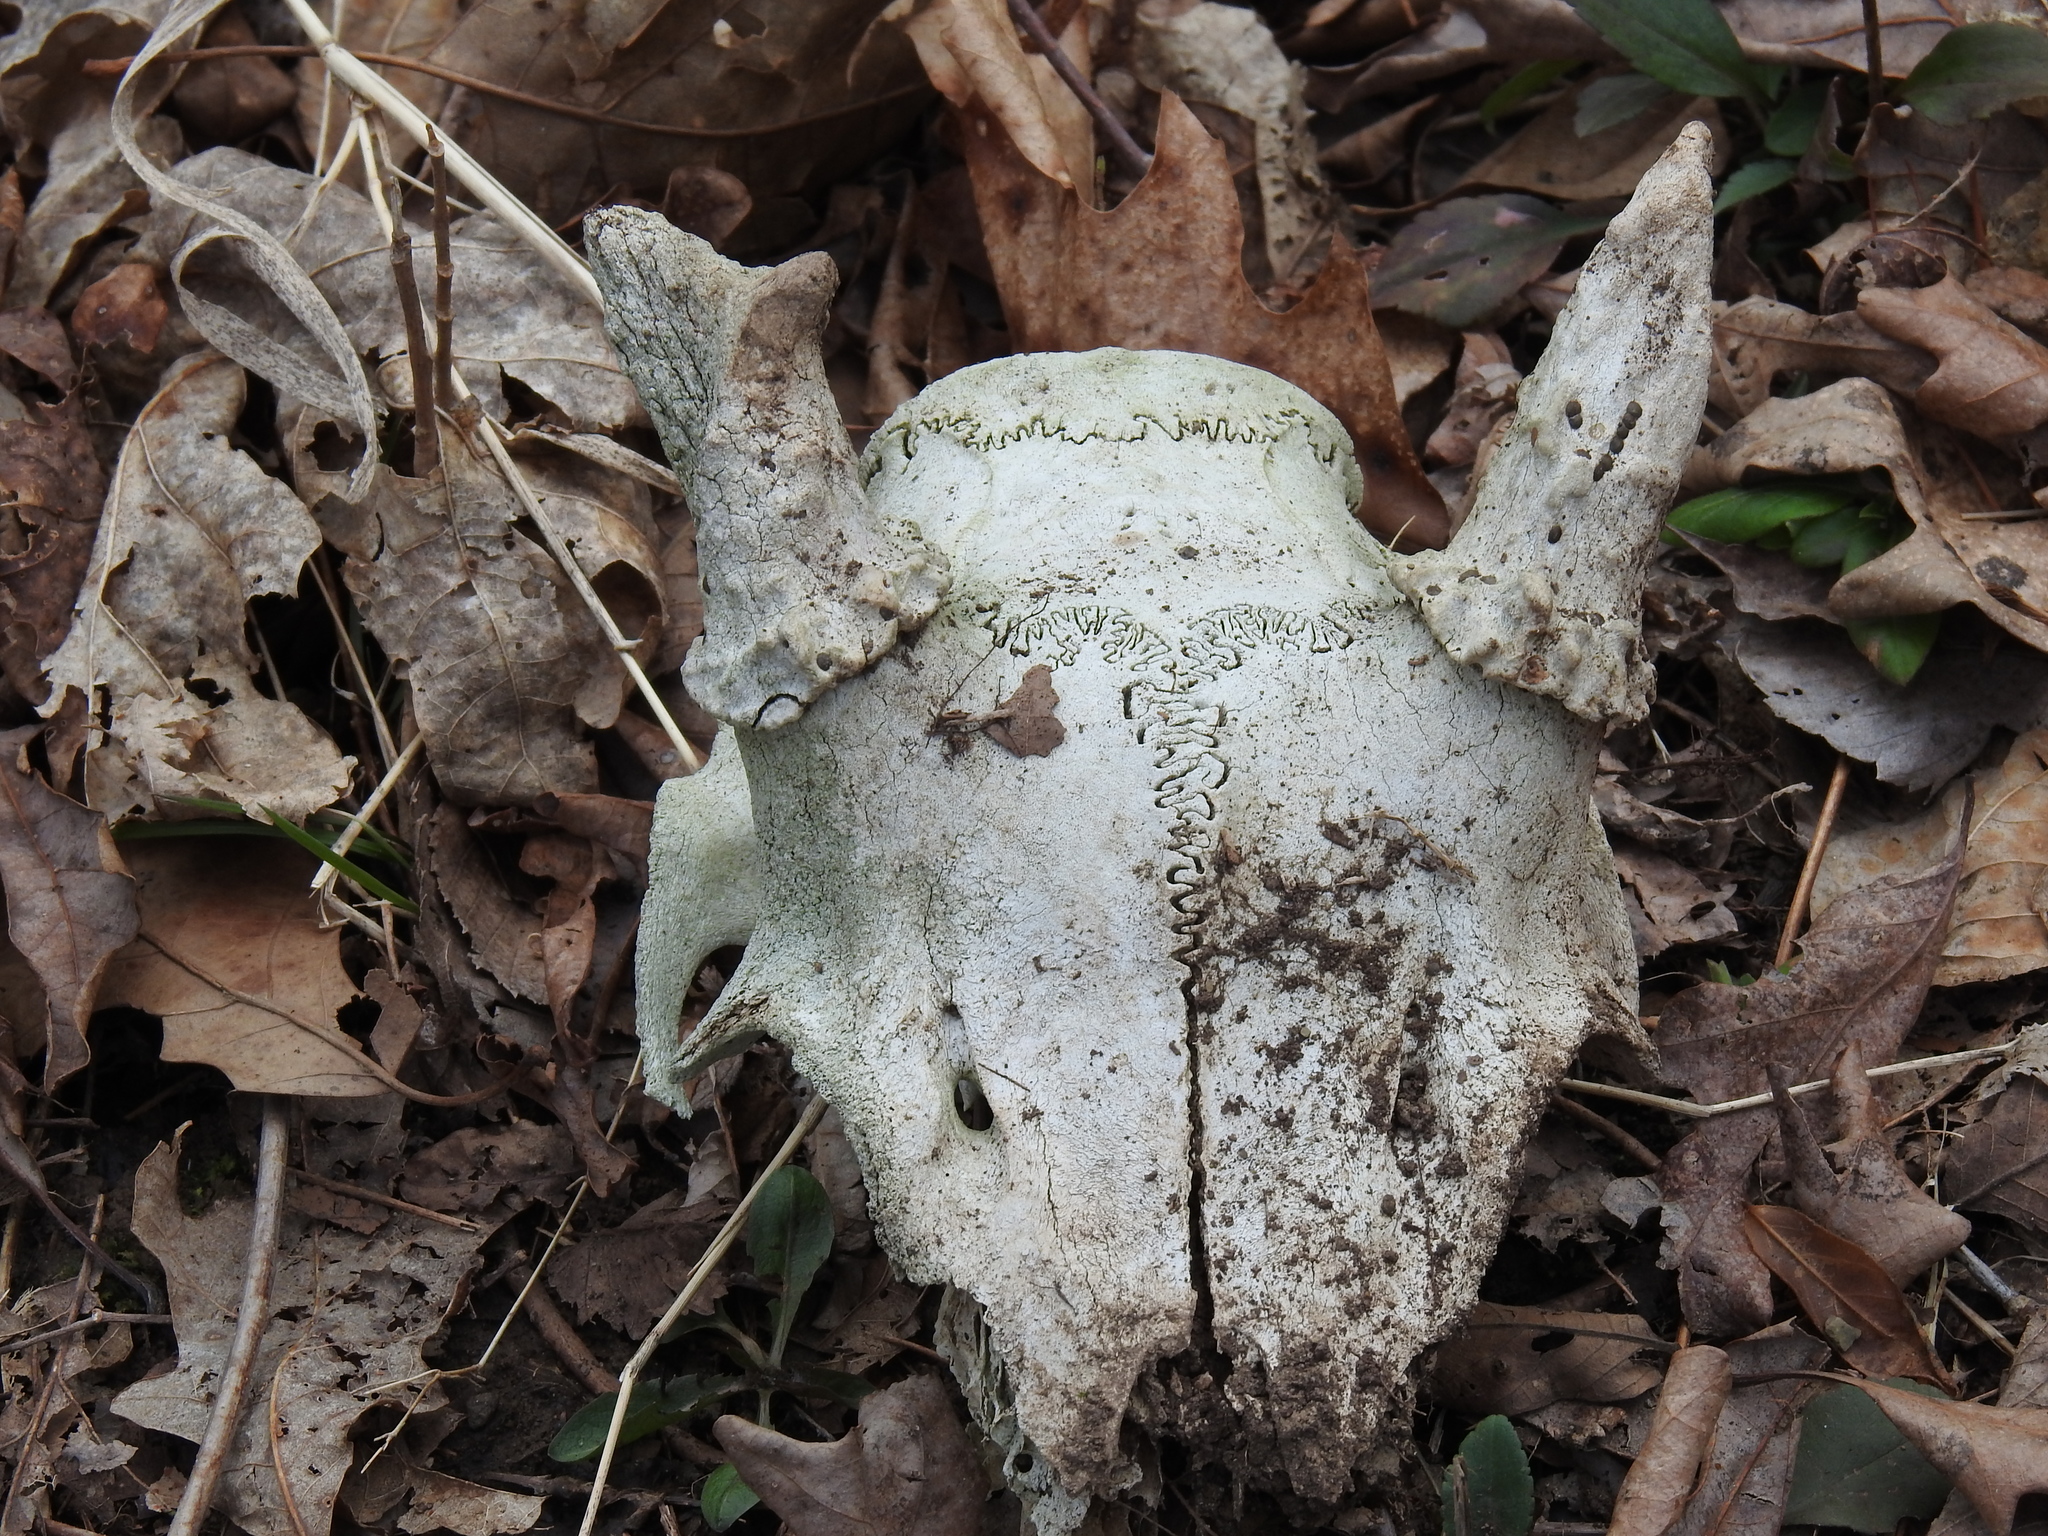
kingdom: Animalia
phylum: Chordata
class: Mammalia
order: Artiodactyla
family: Cervidae
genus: Odocoileus
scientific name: Odocoileus virginianus
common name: White-tailed deer
